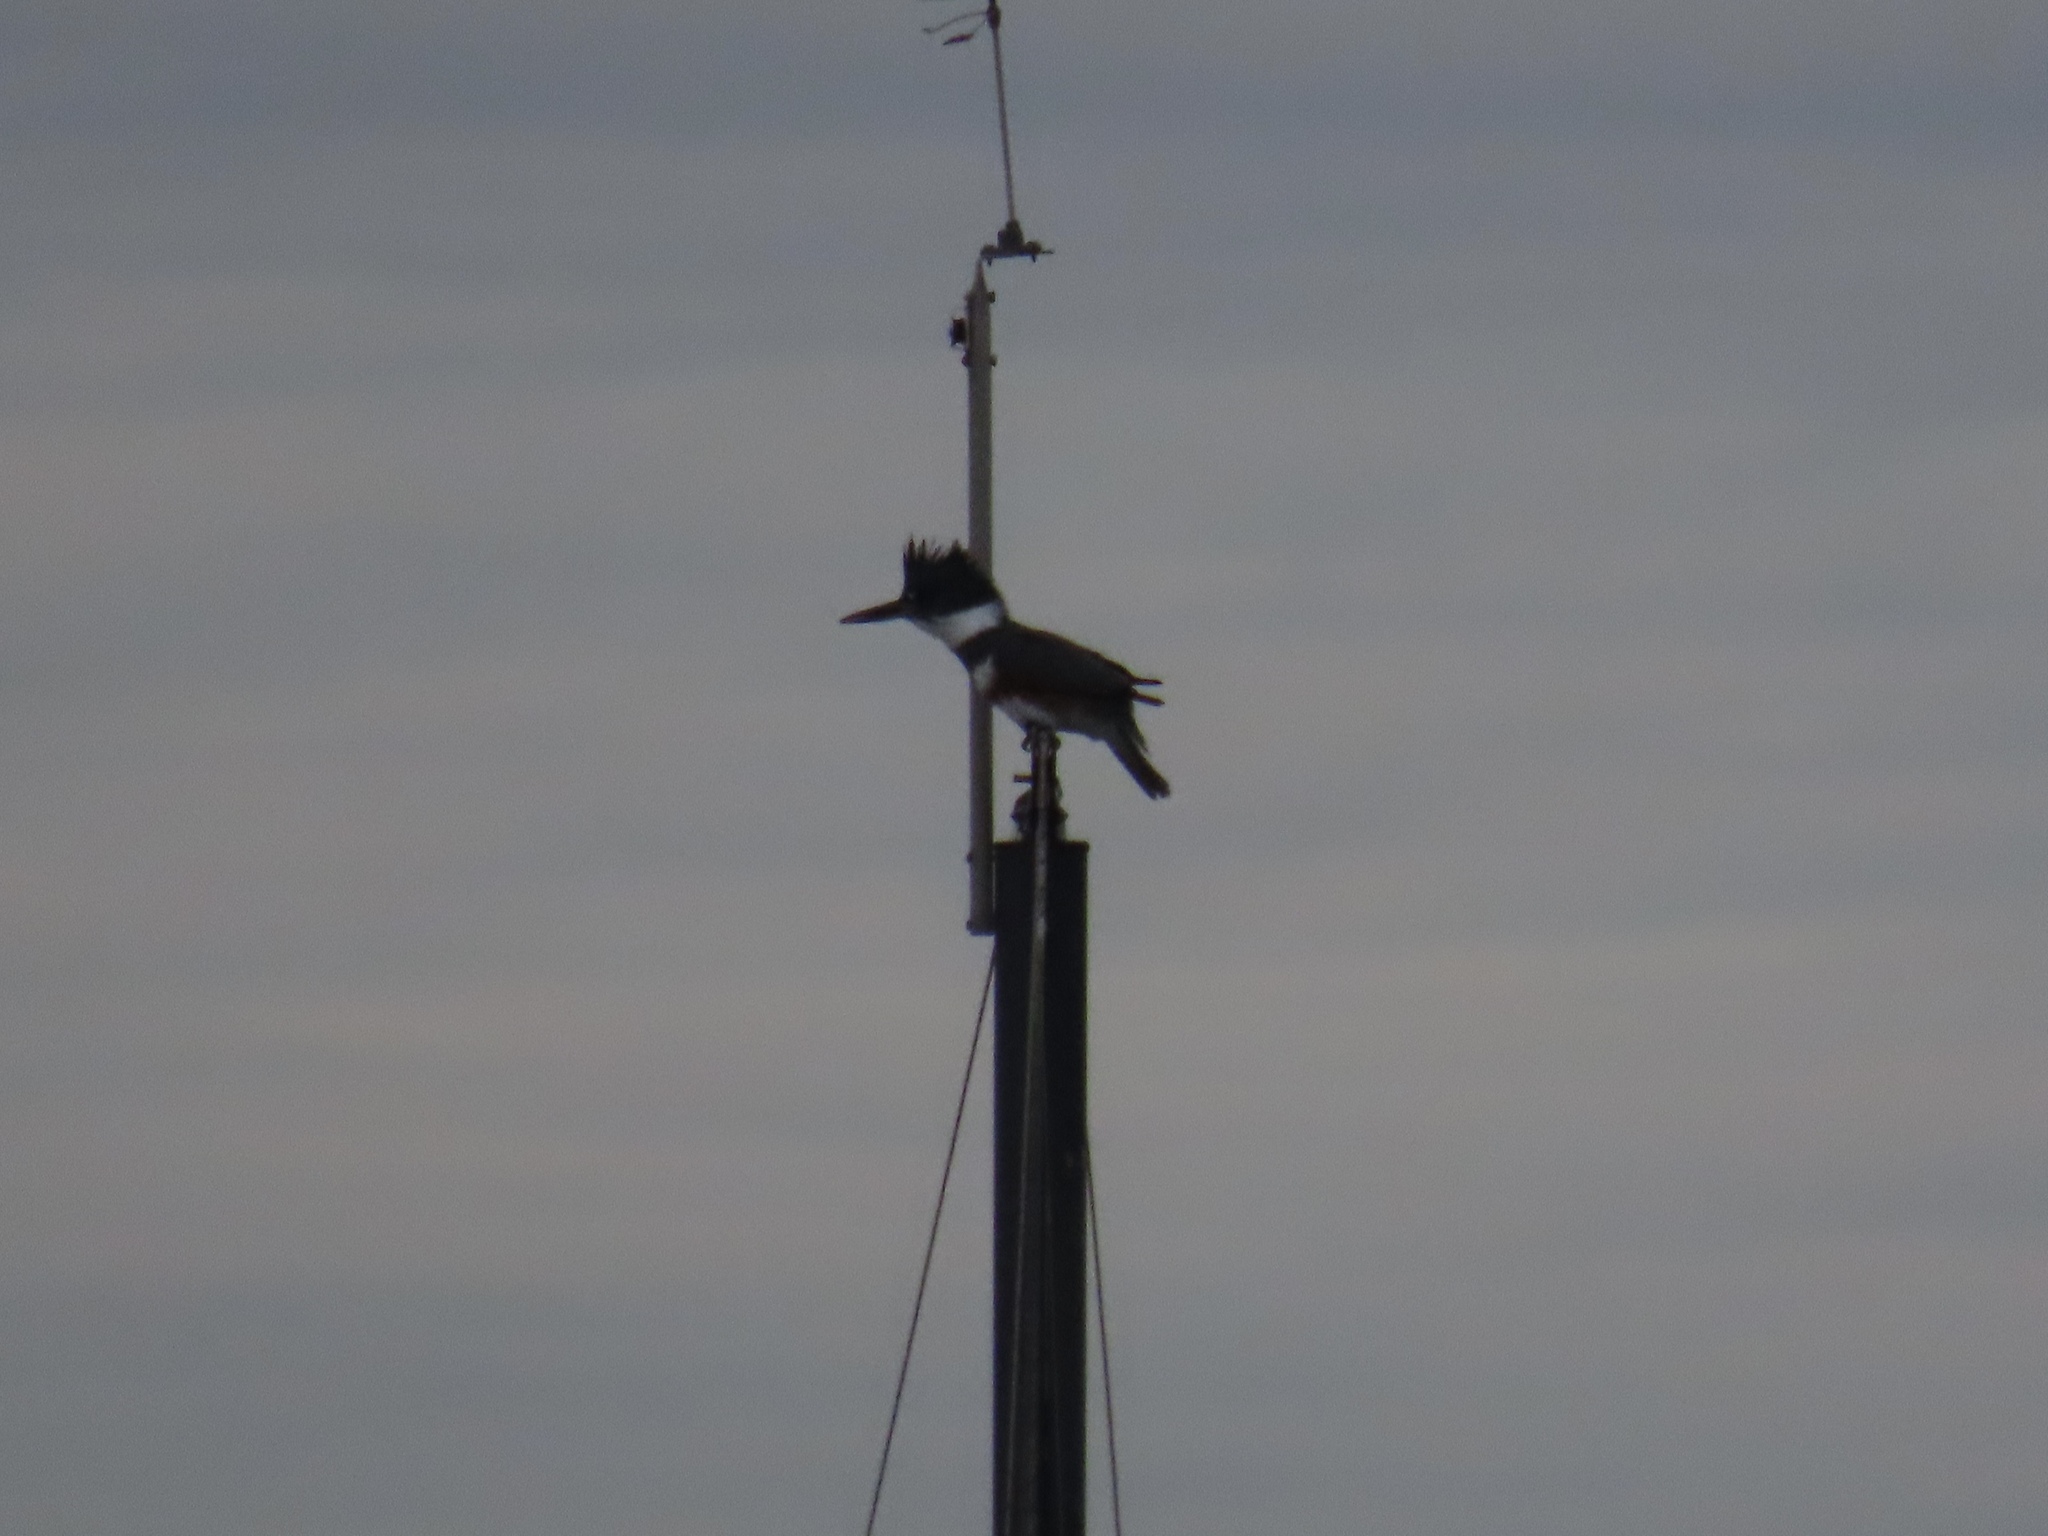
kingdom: Animalia
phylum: Chordata
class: Aves
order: Coraciiformes
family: Alcedinidae
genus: Megaceryle
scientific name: Megaceryle alcyon
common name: Belted kingfisher
